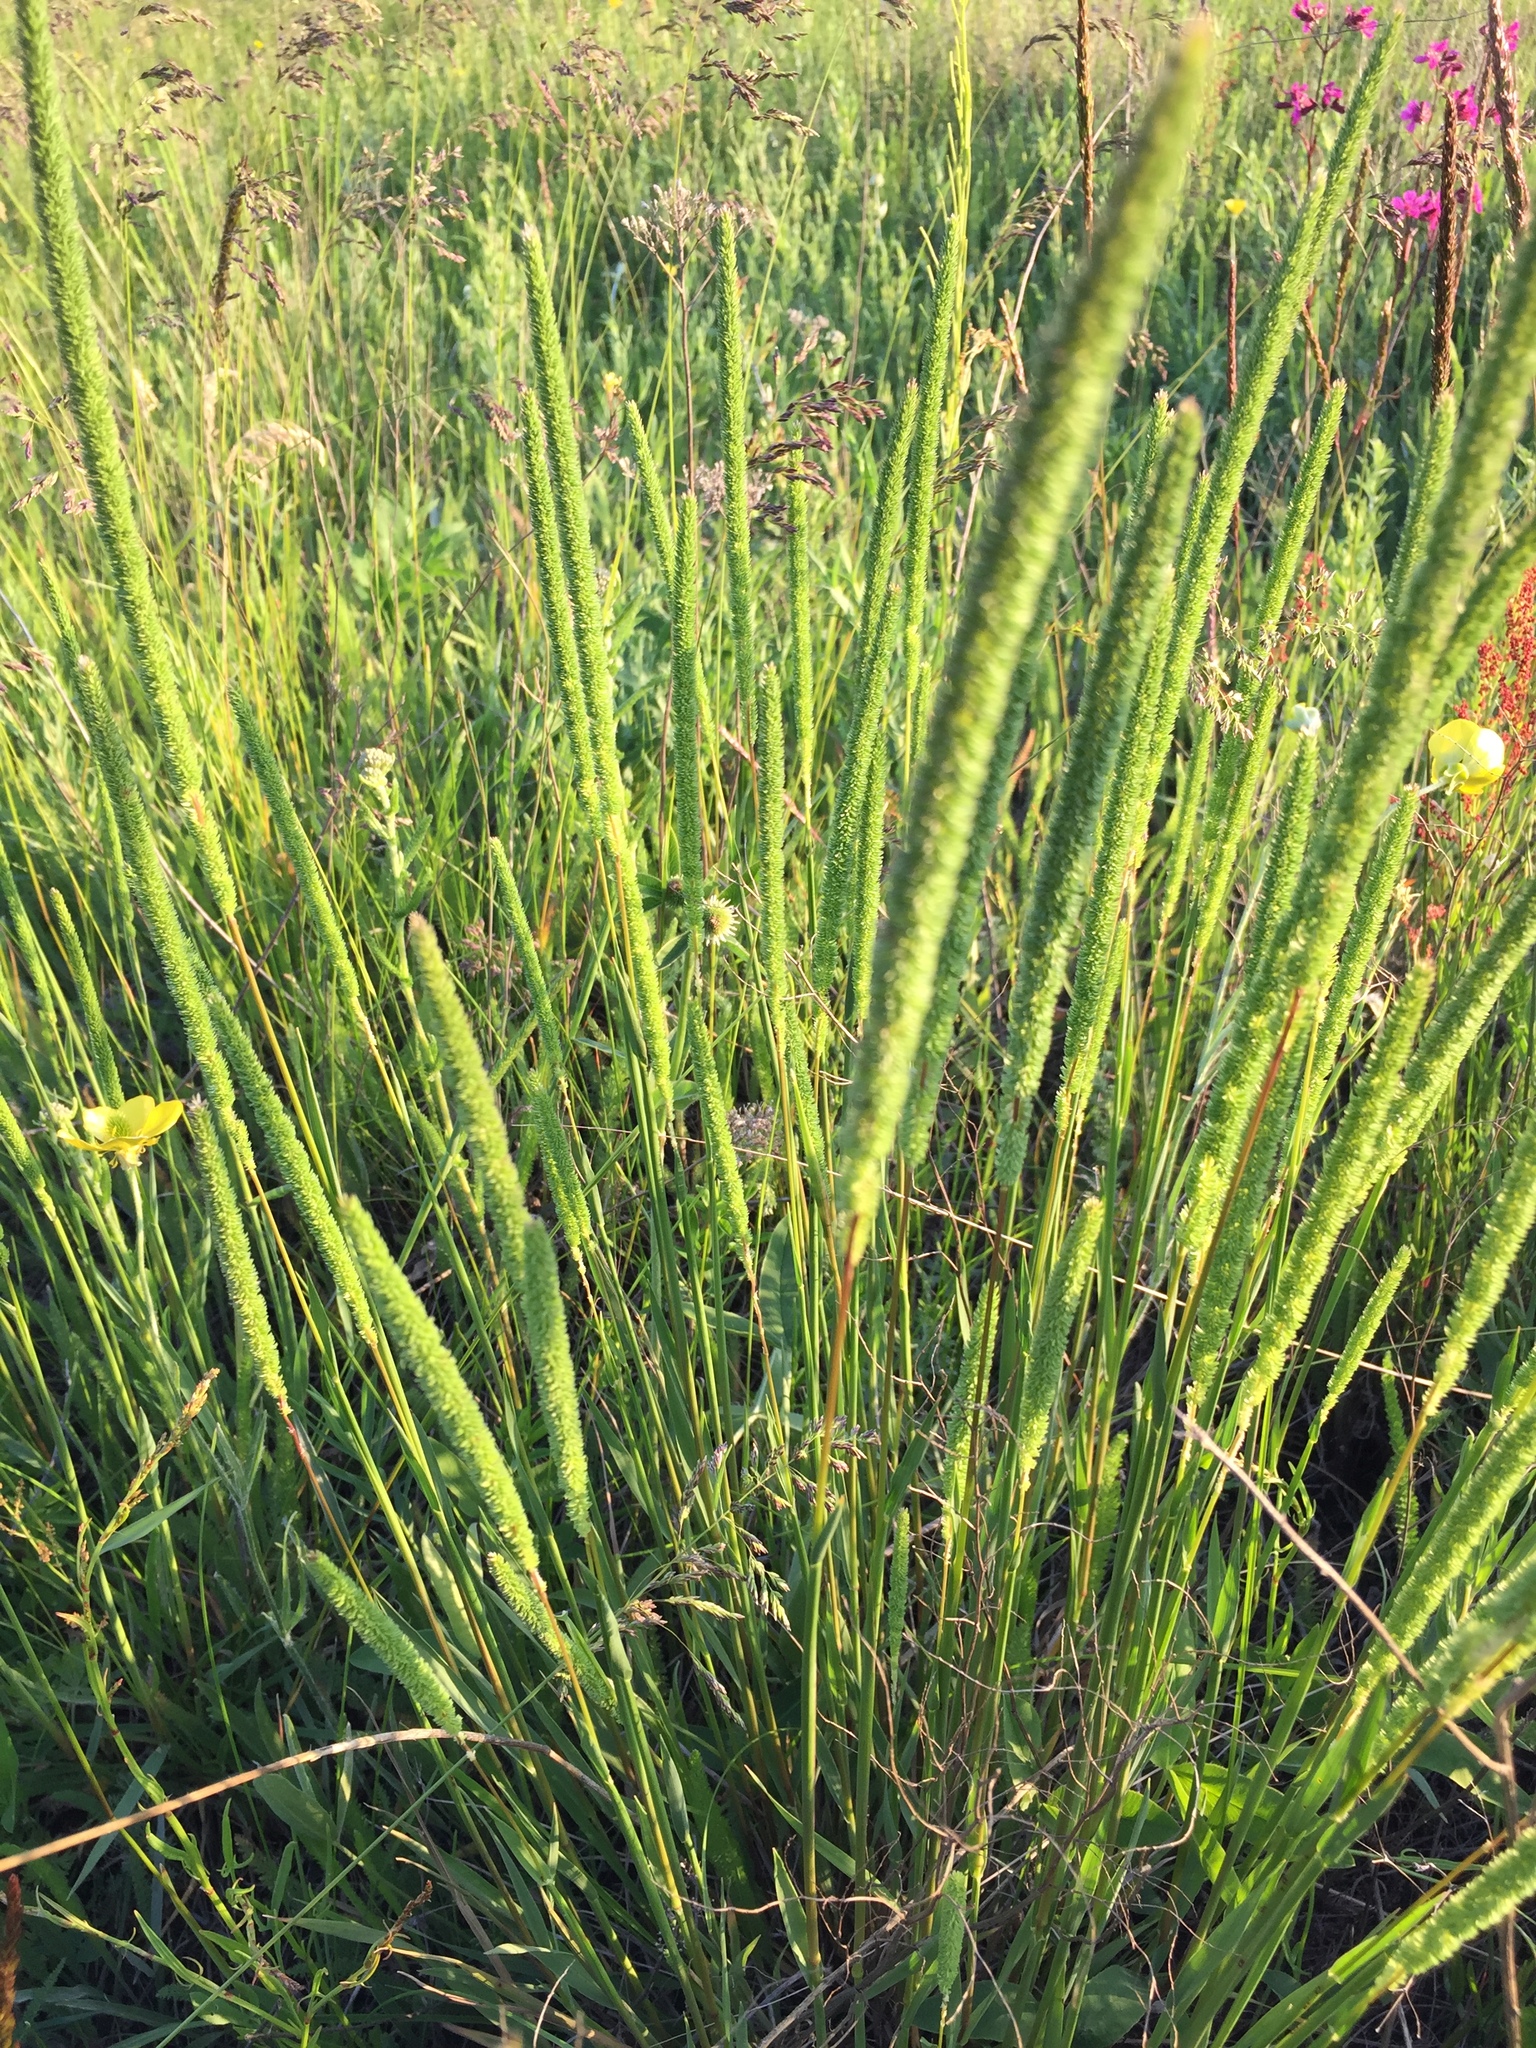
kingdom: Plantae
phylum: Tracheophyta
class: Liliopsida
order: Poales
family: Poaceae
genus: Phleum
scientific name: Phleum pratense
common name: Timothy grass
